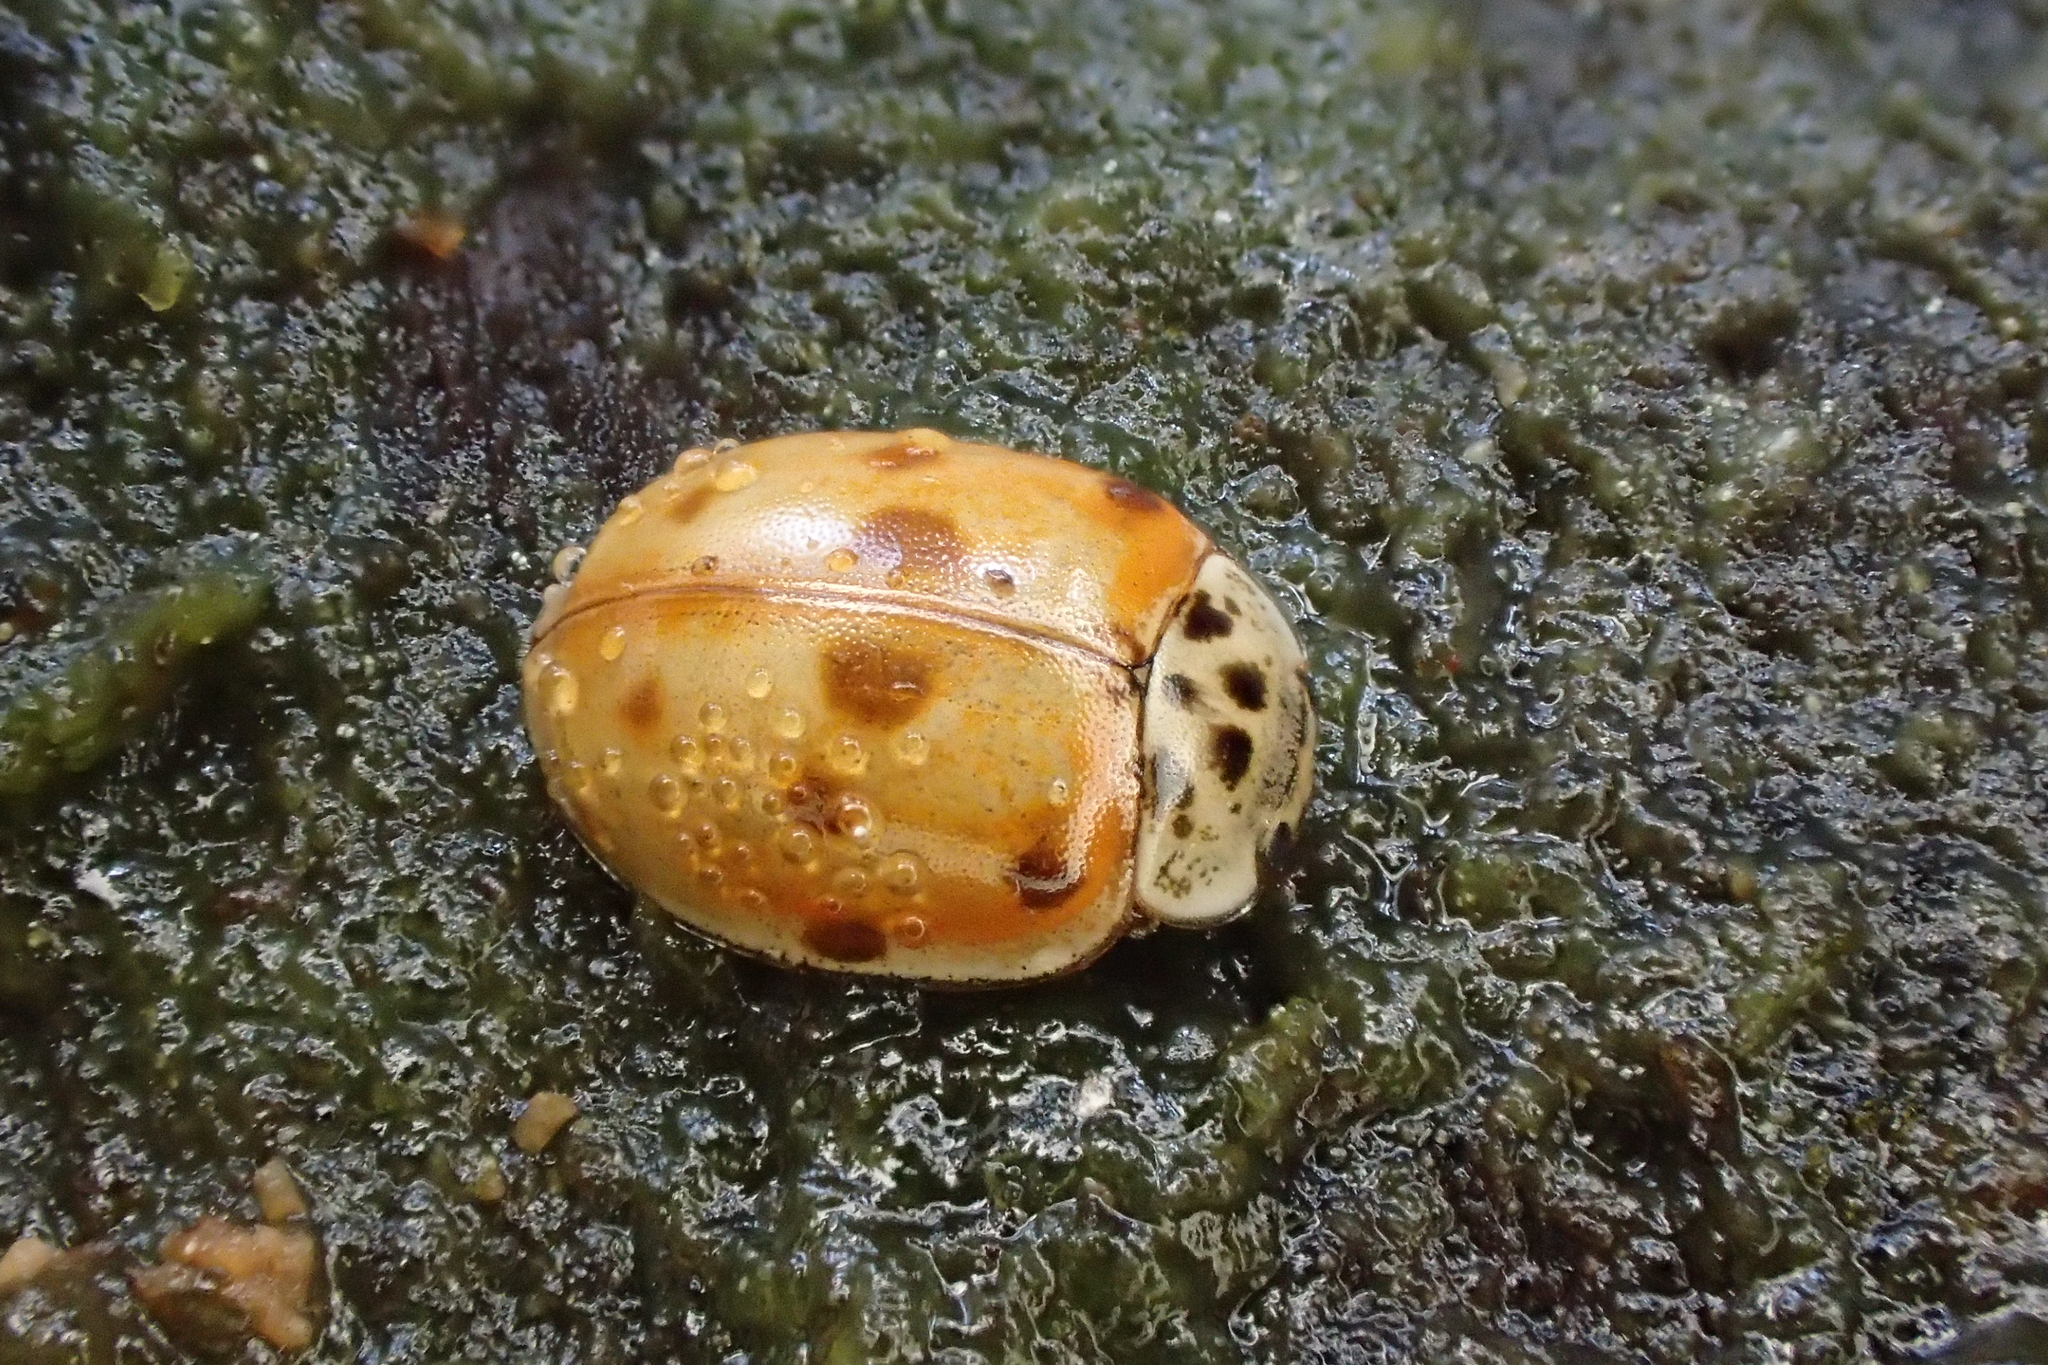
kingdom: Animalia
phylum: Arthropoda
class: Insecta
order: Coleoptera
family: Coccinellidae
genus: Adalia
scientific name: Adalia decempunctata
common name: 10-spot ladybird
